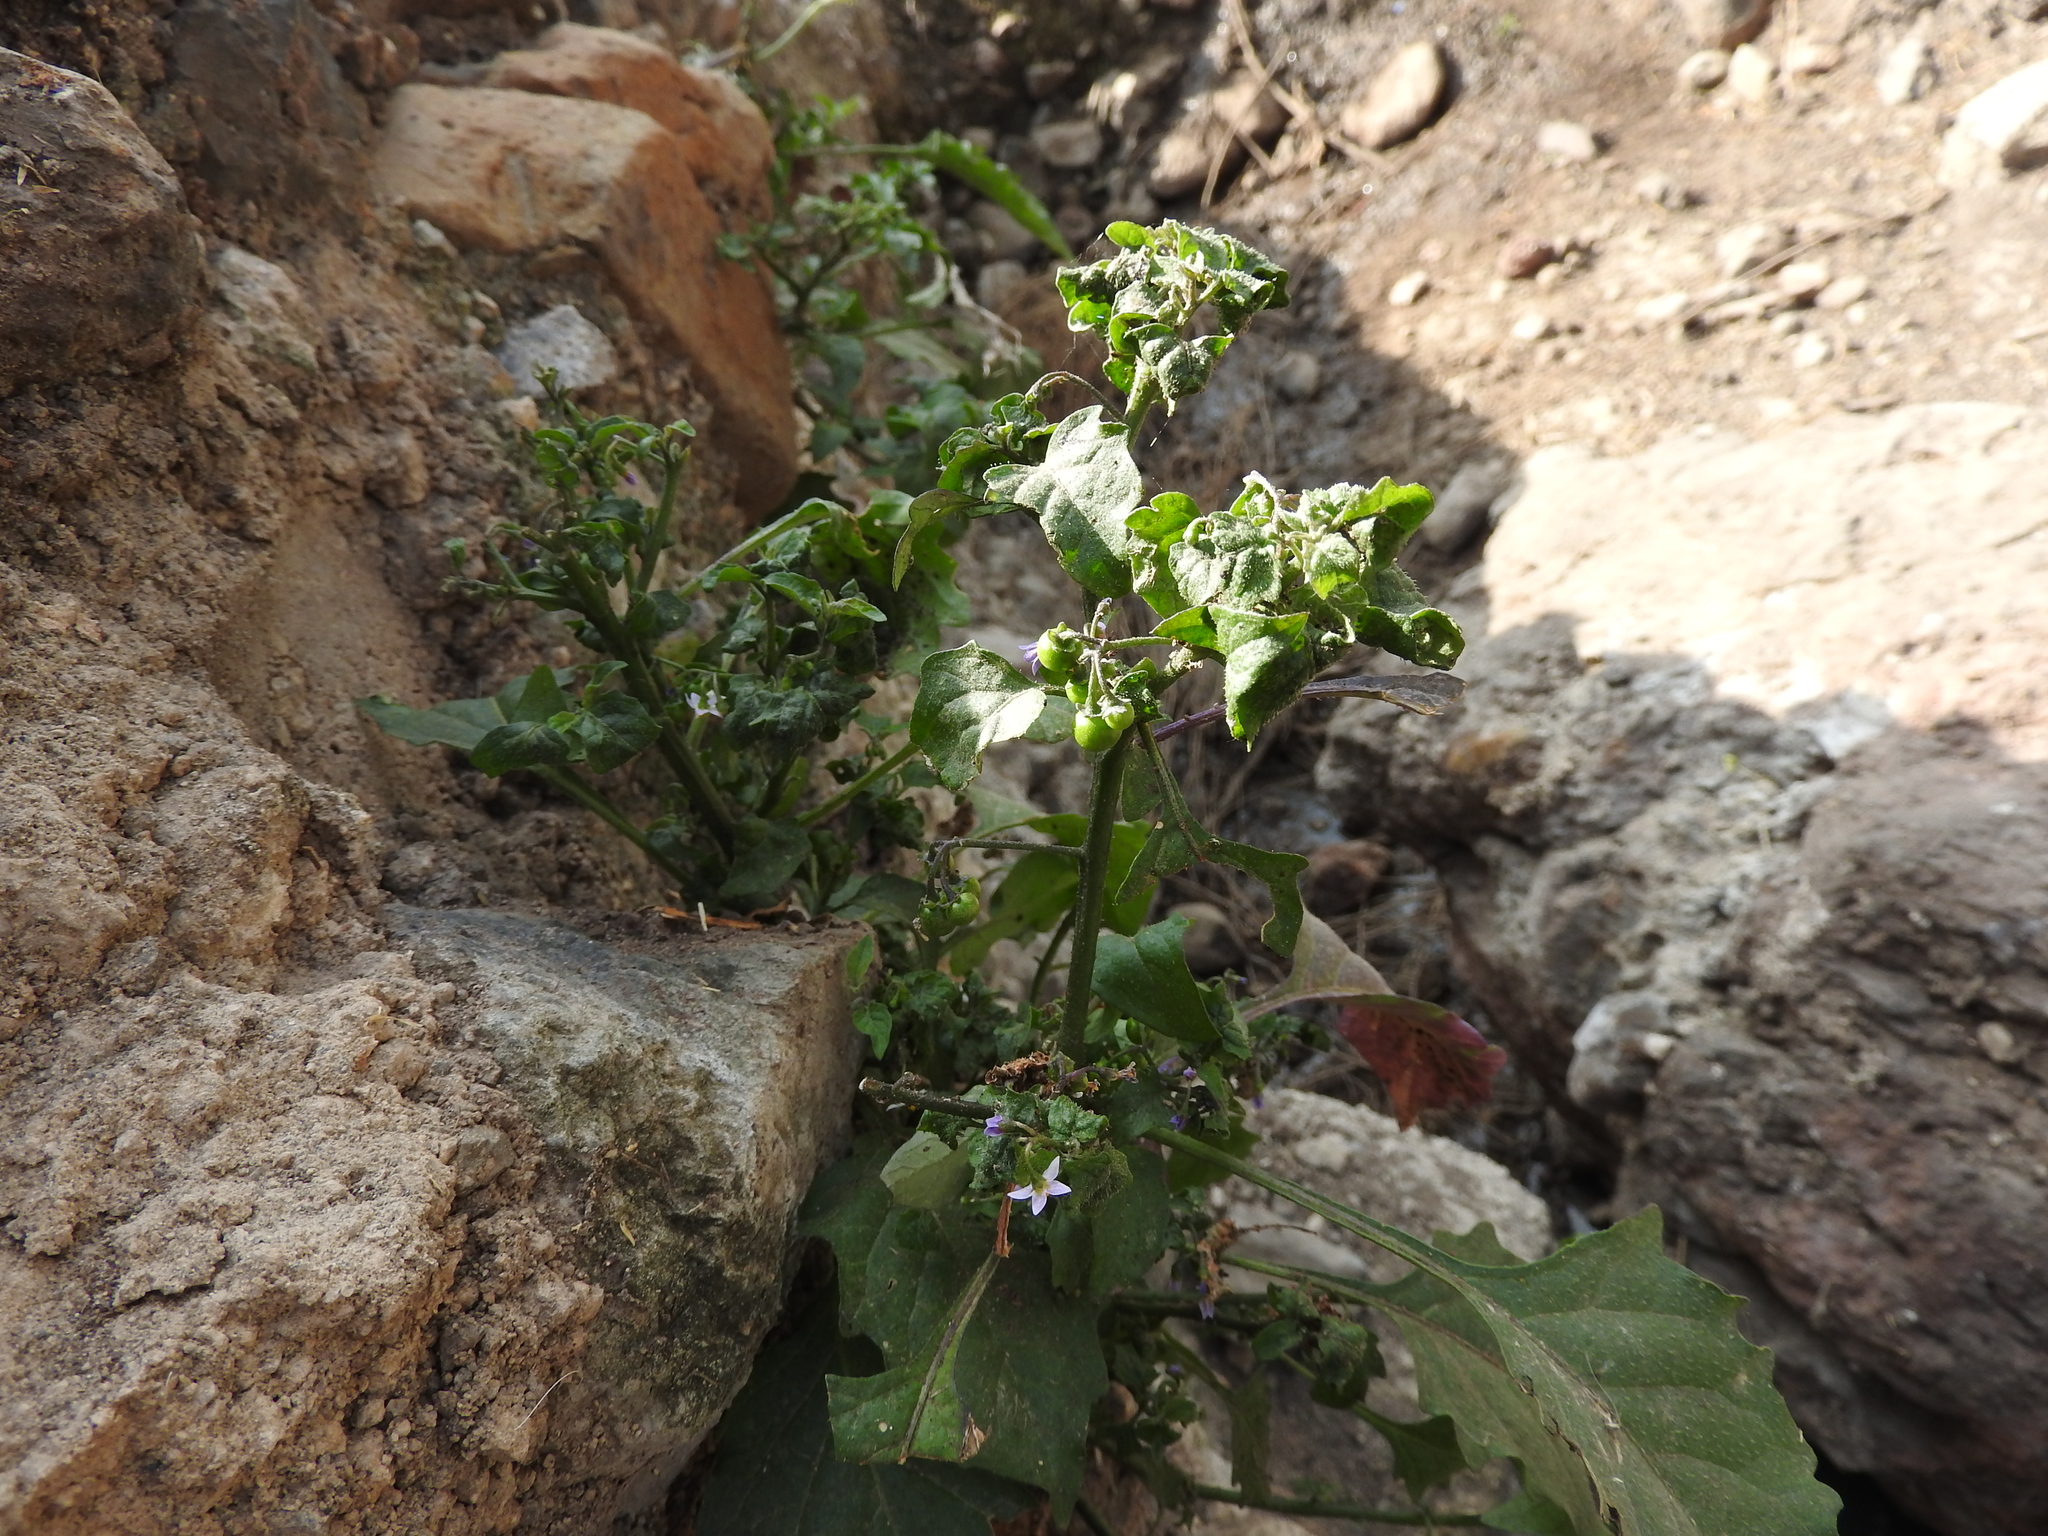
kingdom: Plantae
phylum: Tracheophyta
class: Magnoliopsida
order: Solanales
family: Solanaceae
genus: Solanum
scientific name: Solanum americanum
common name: American black nightshade
